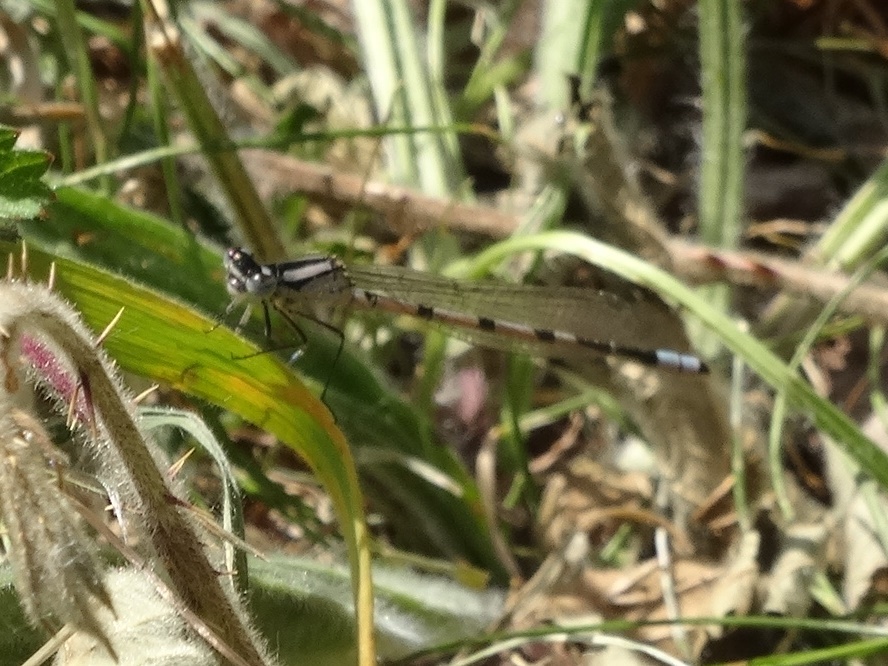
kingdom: Animalia
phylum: Arthropoda
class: Insecta
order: Odonata
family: Coenagrionidae
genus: Enallagma
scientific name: Enallagma cyathigerum
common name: Common blue damselfly
